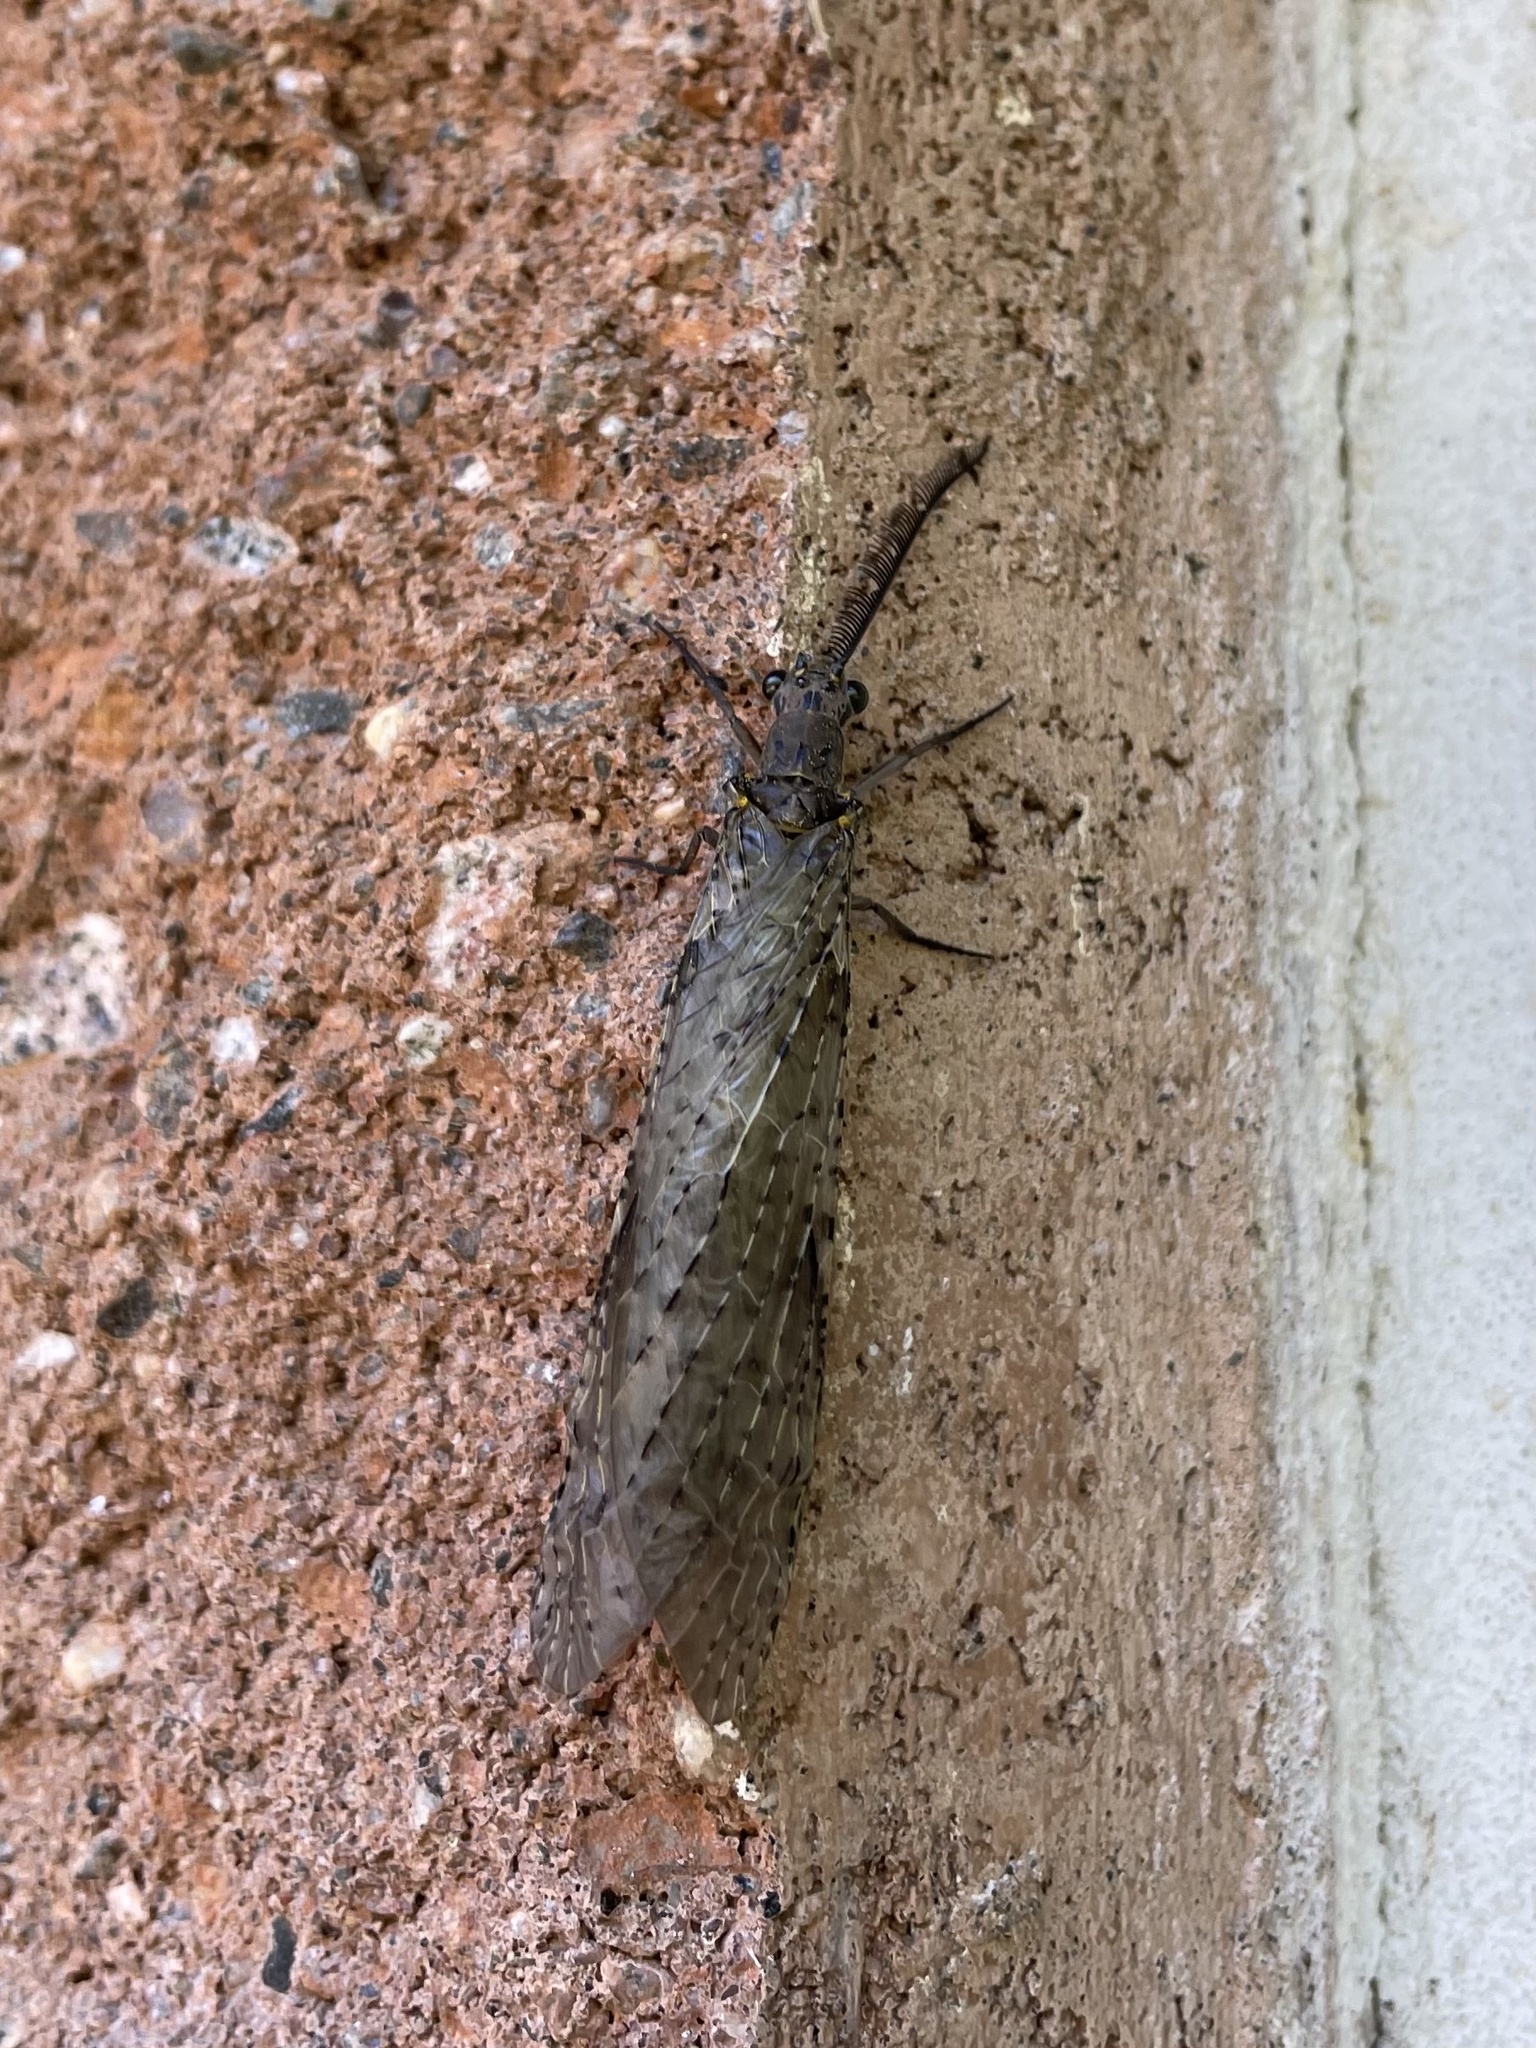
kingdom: Animalia
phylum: Arthropoda
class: Insecta
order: Megaloptera
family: Corydalidae
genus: Chauliodes
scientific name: Chauliodes rastricornis
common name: Spring fishfly
